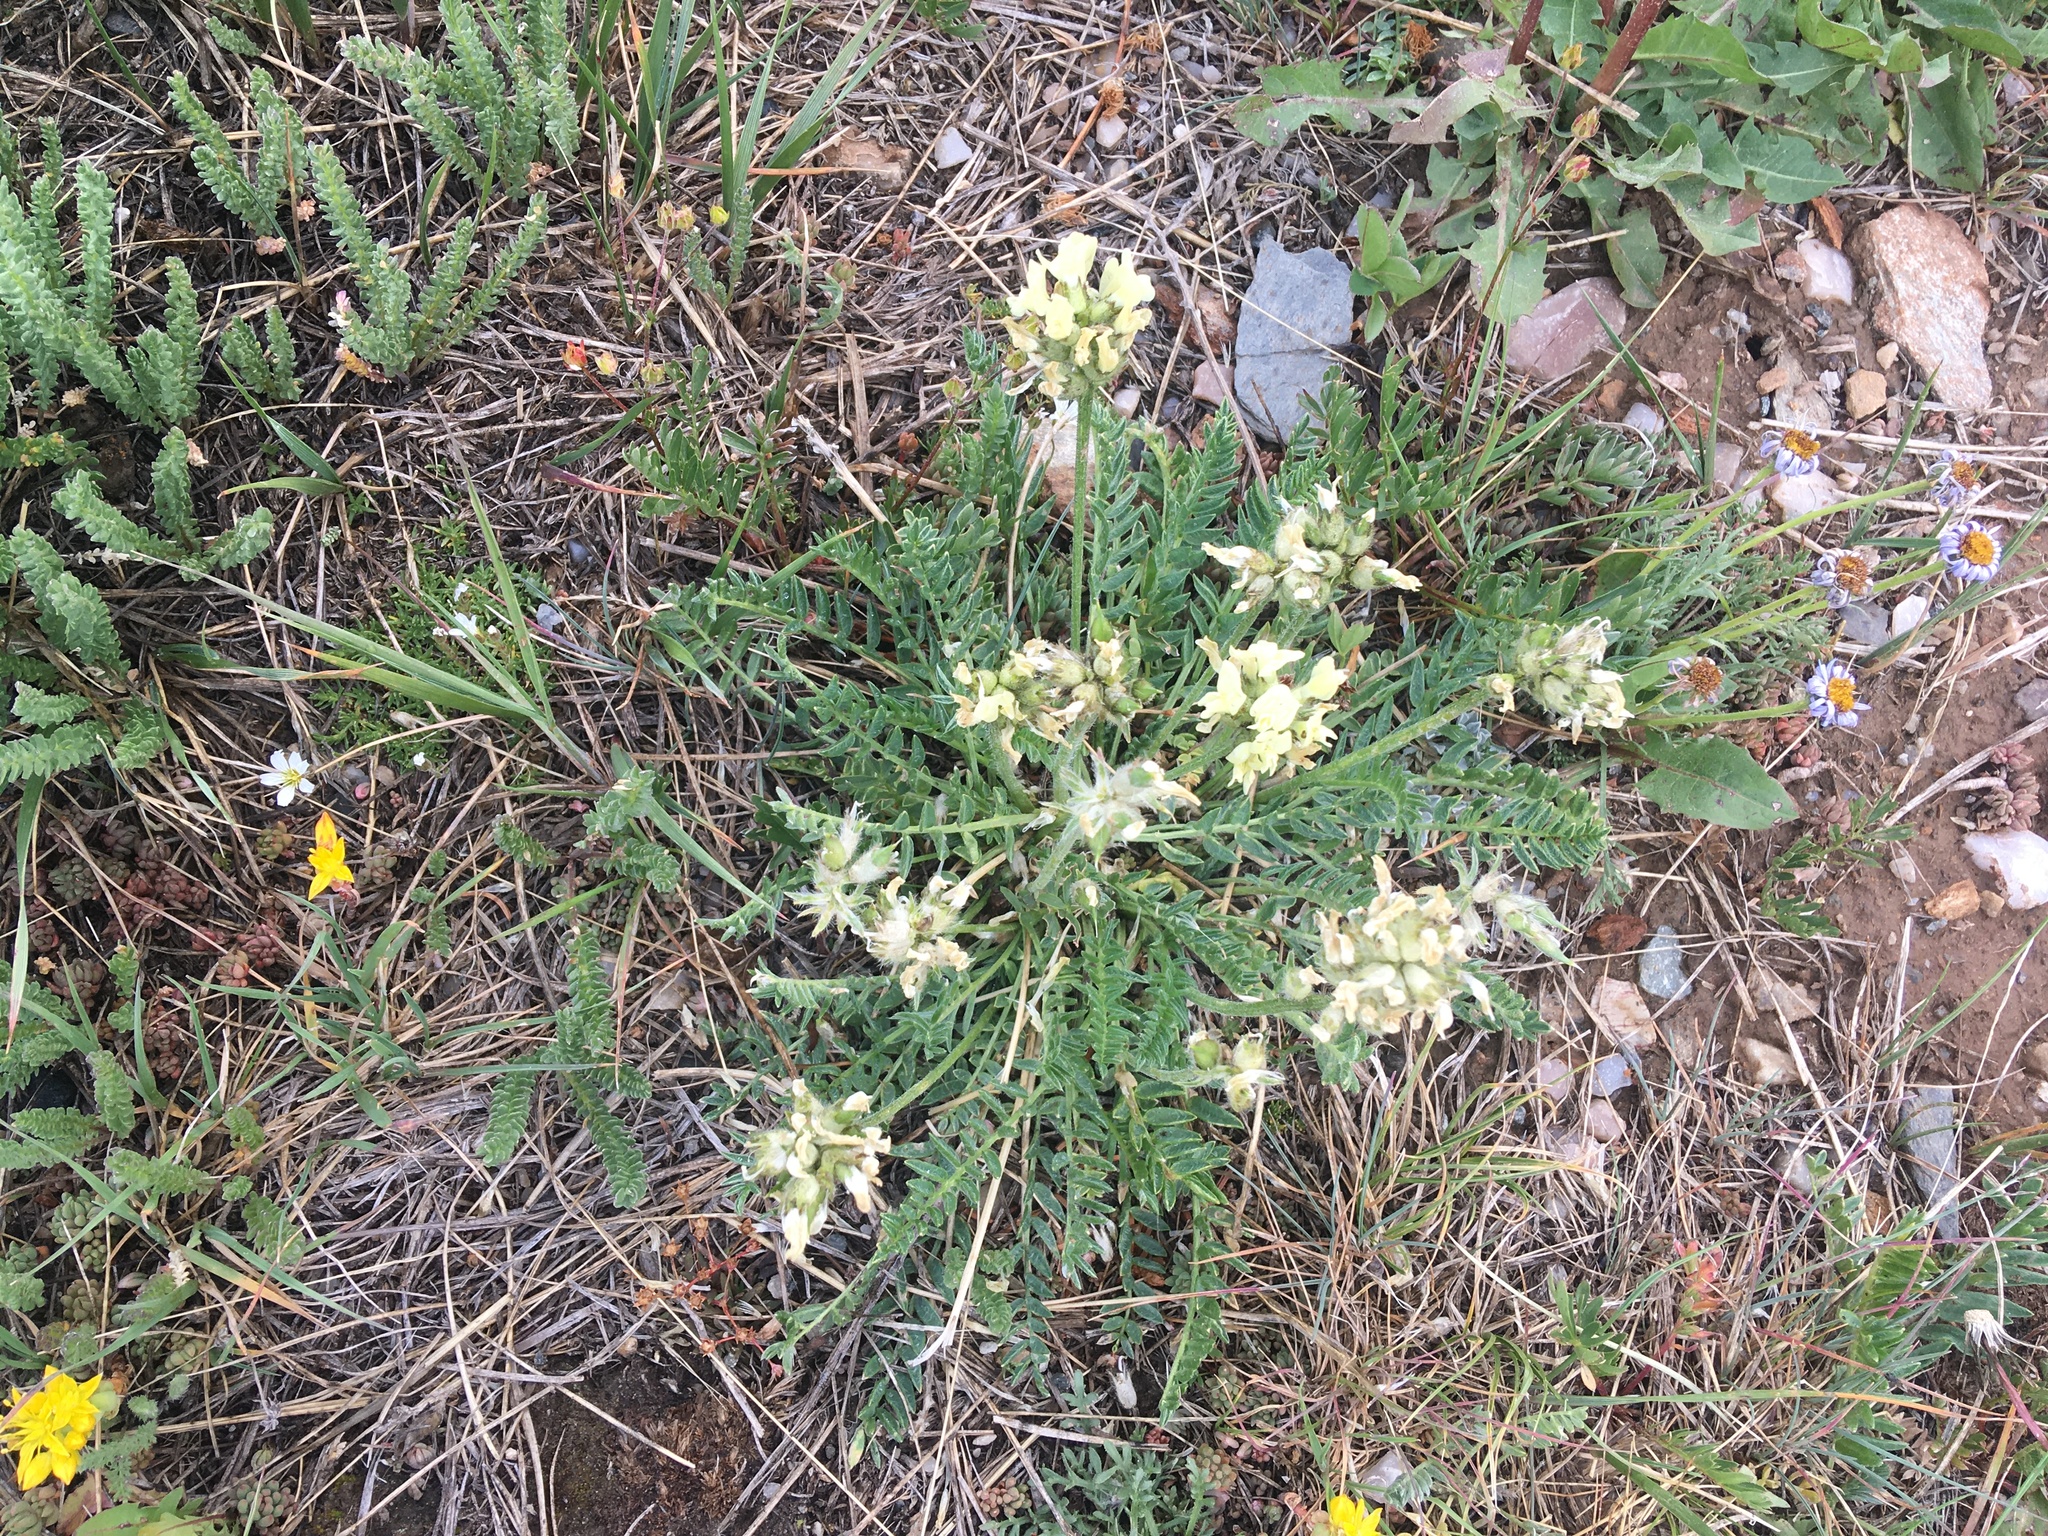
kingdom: Plantae
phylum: Tracheophyta
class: Magnoliopsida
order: Fabales
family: Fabaceae
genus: Oxytropis
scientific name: Oxytropis campestris
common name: Field locoweed
